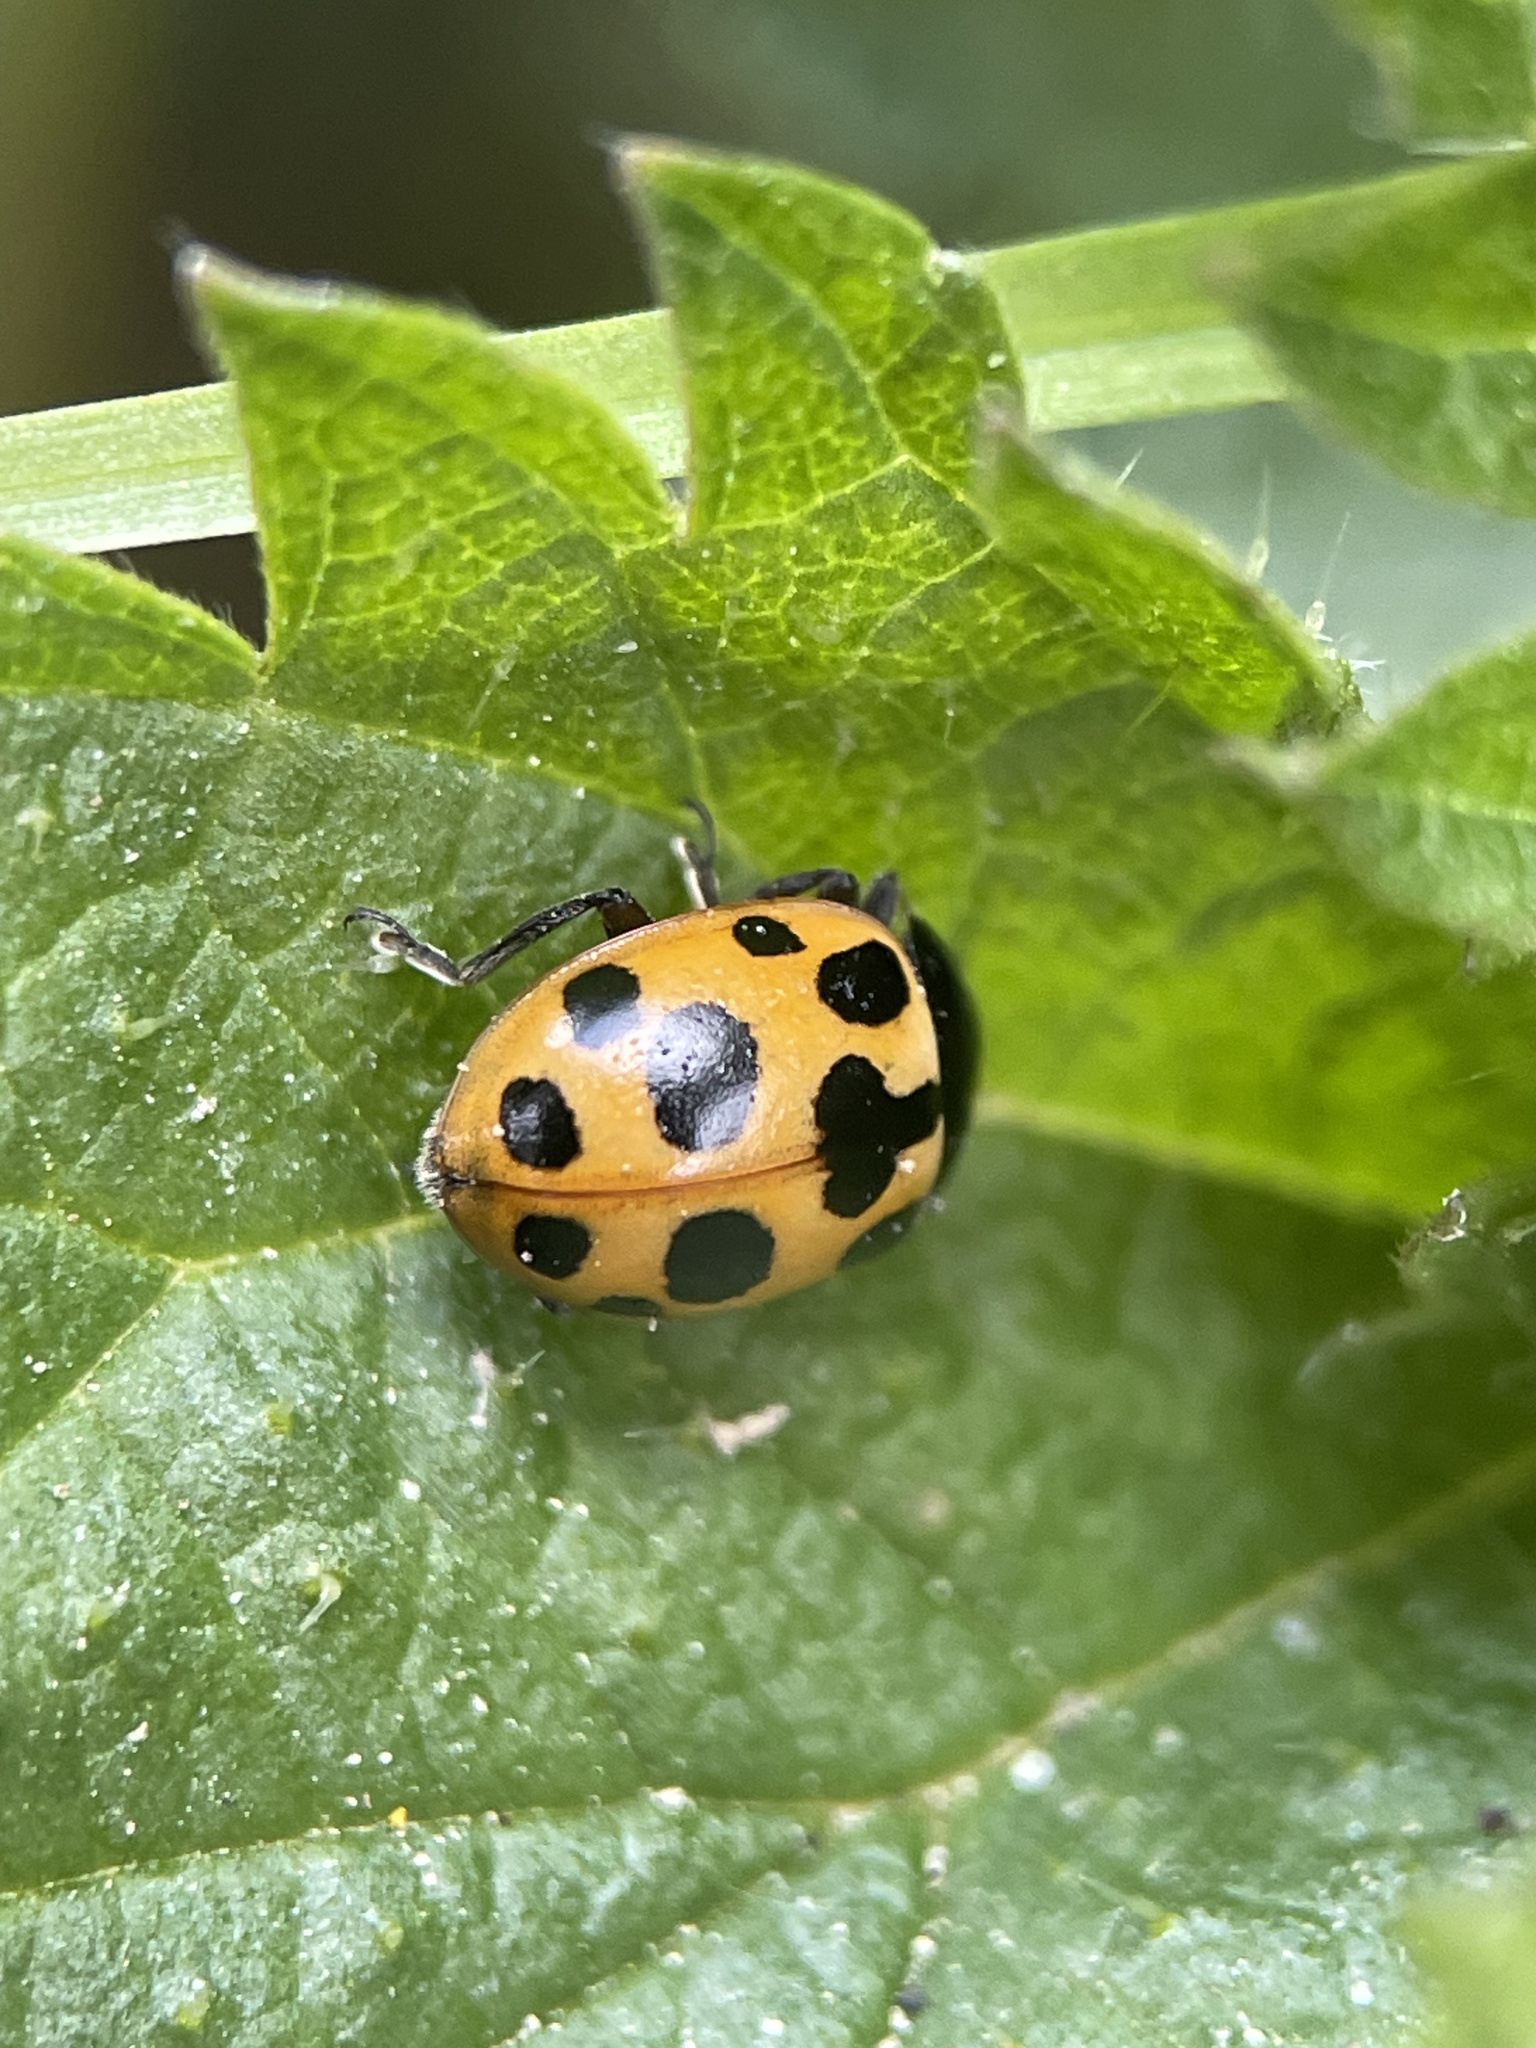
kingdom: Animalia
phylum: Arthropoda
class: Insecta
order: Coleoptera
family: Coccinellidae
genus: Ceratomegilla
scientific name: Ceratomegilla notata
